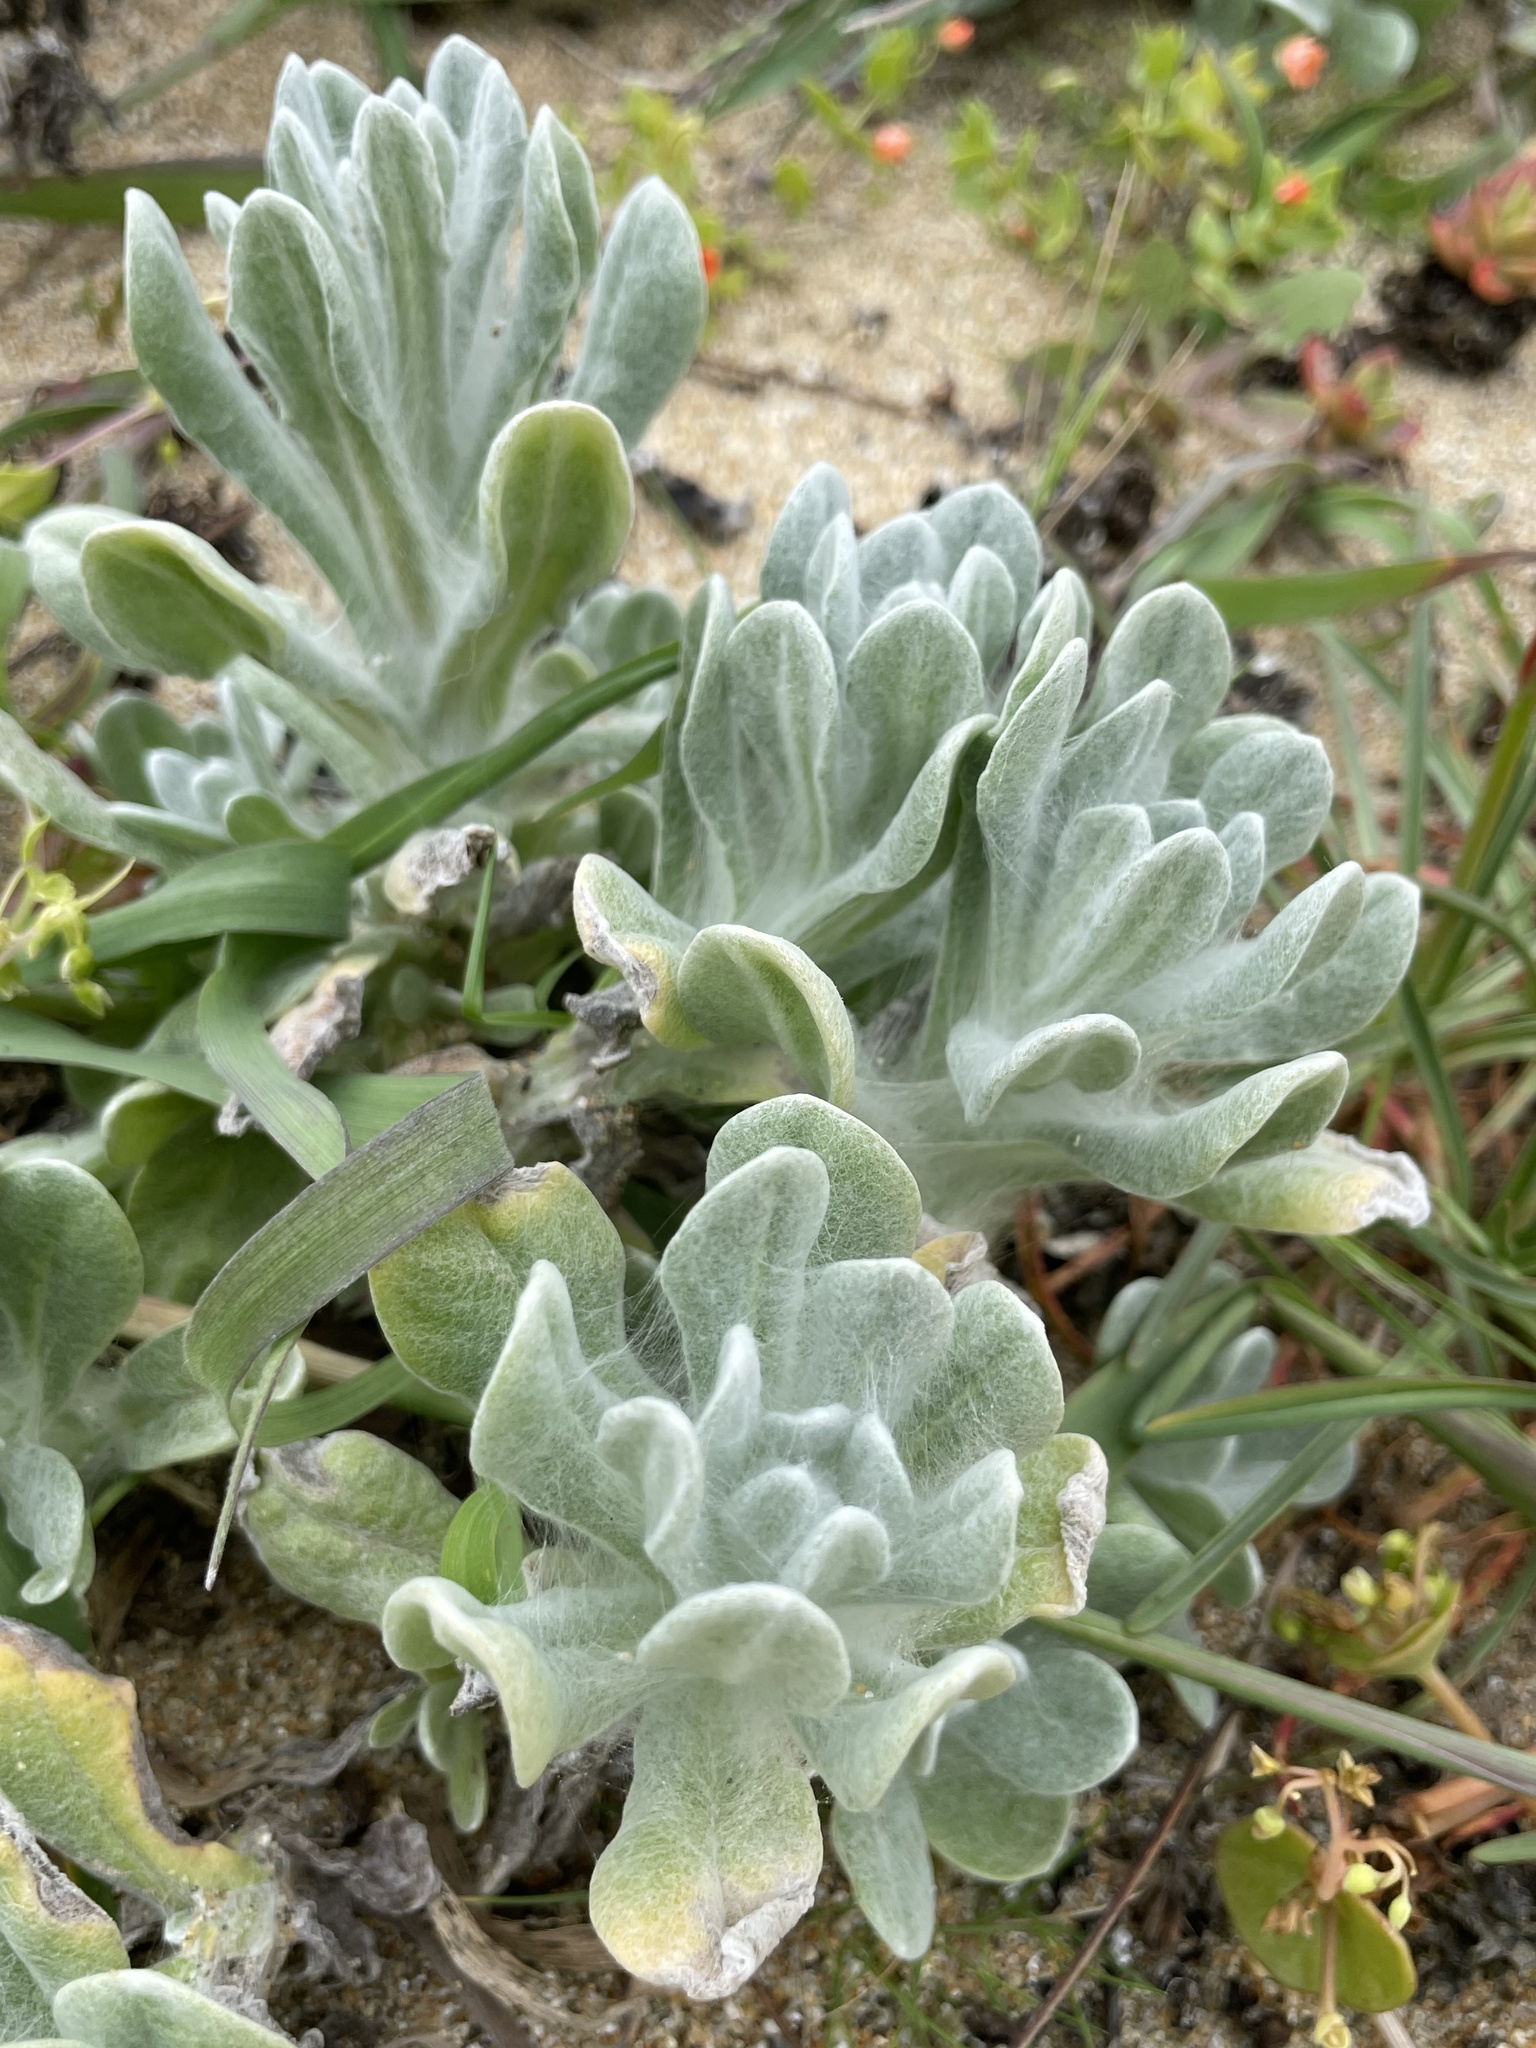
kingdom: Plantae
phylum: Tracheophyta
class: Magnoliopsida
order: Asterales
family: Asteraceae
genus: Pseudognaphalium
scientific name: Pseudognaphalium stramineum
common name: Cotton-batting-plant
